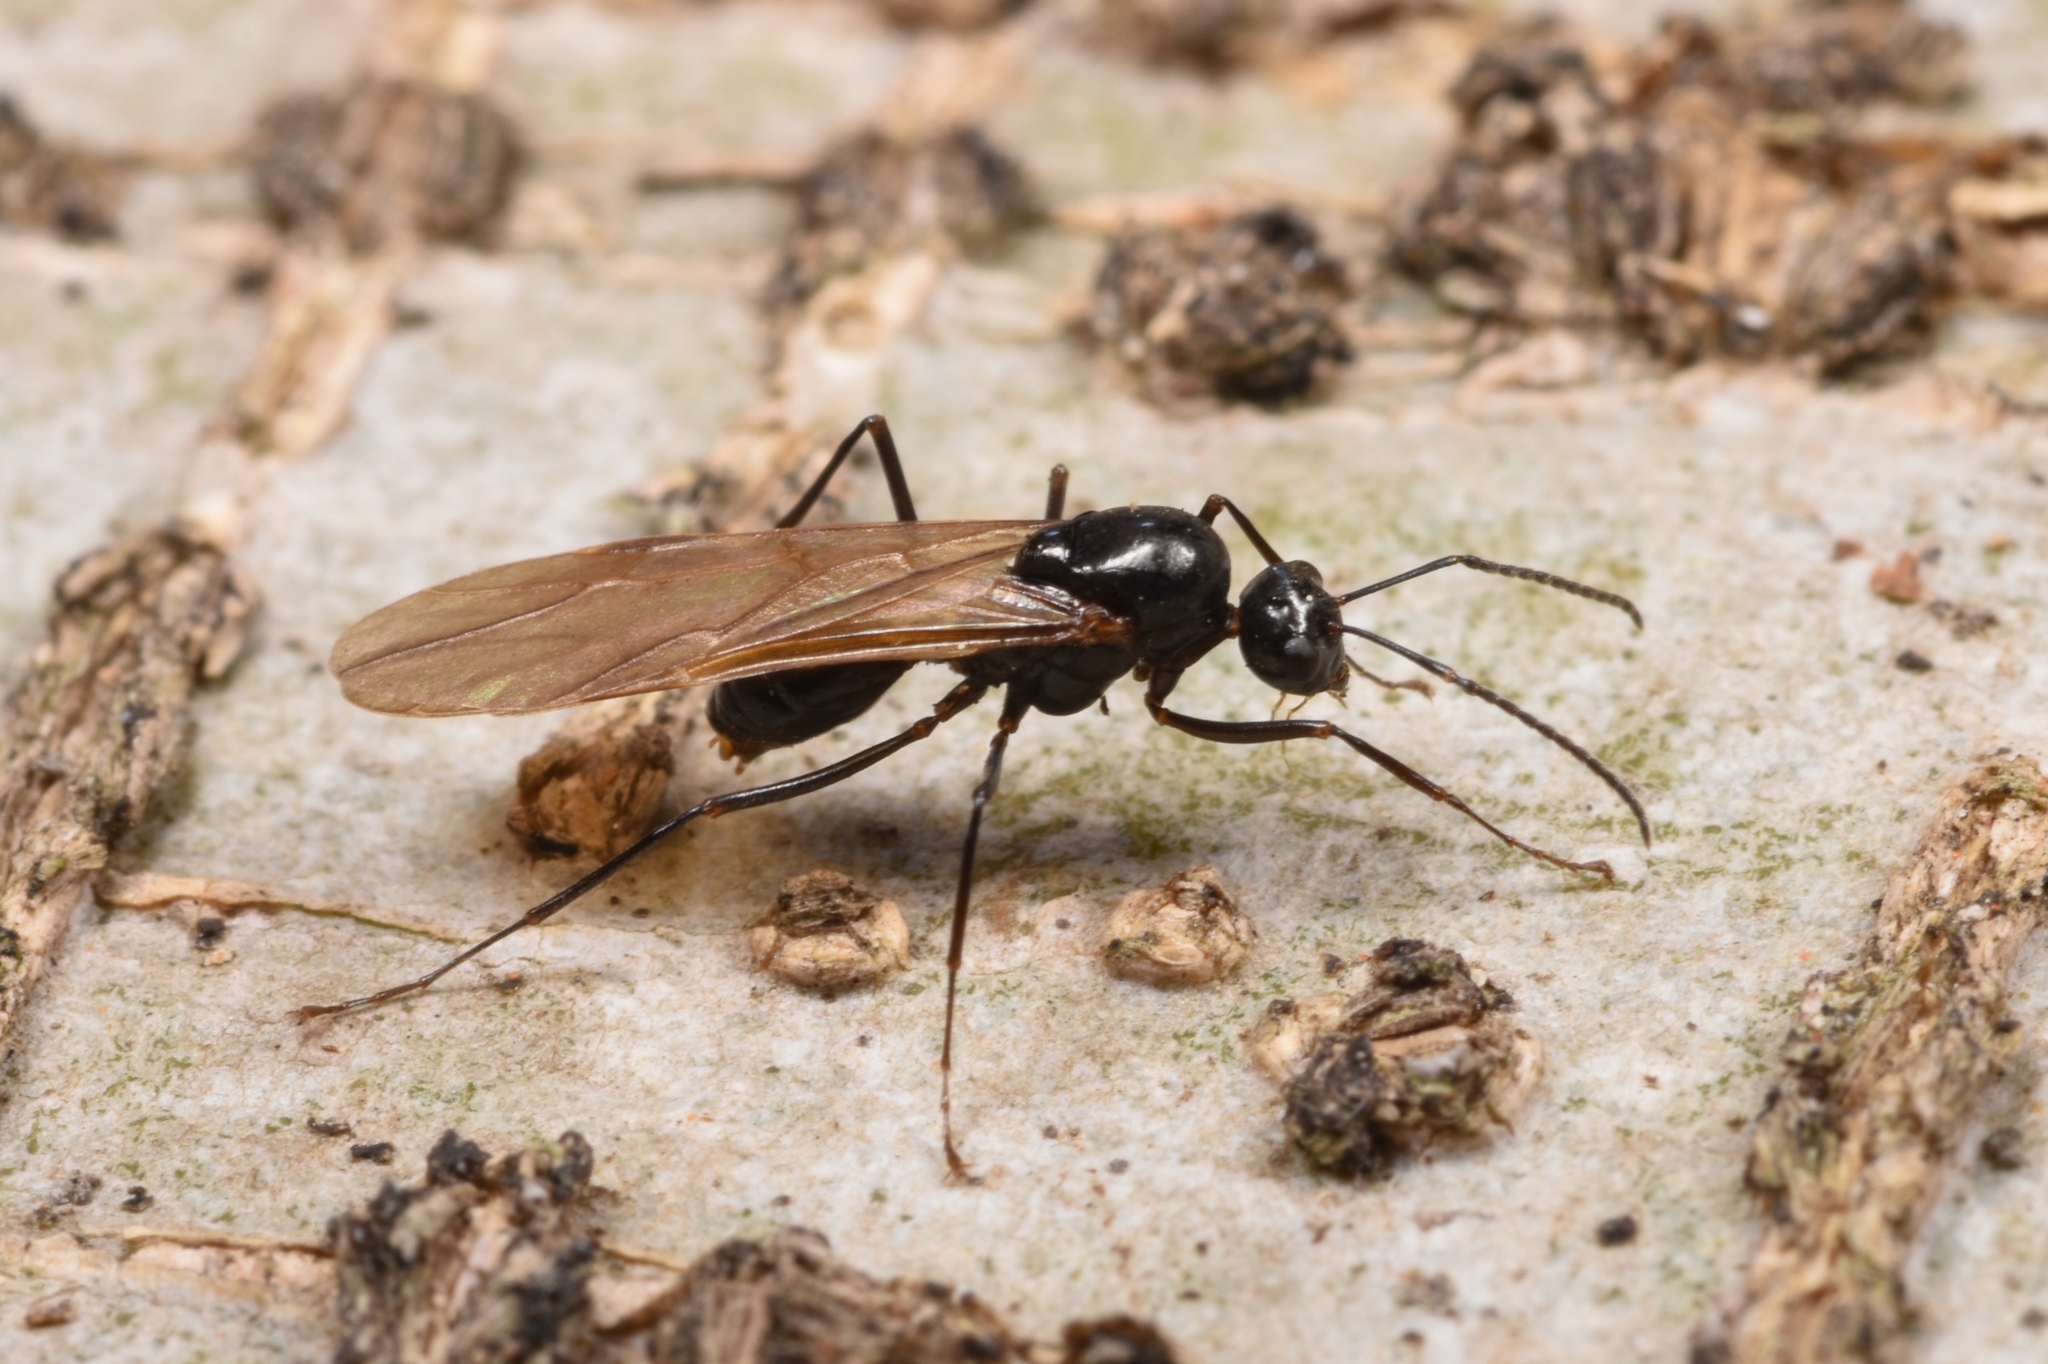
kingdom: Animalia
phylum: Arthropoda
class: Insecta
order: Hymenoptera
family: Formicidae
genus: Polyrhachis
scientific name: Polyrhachis australis
